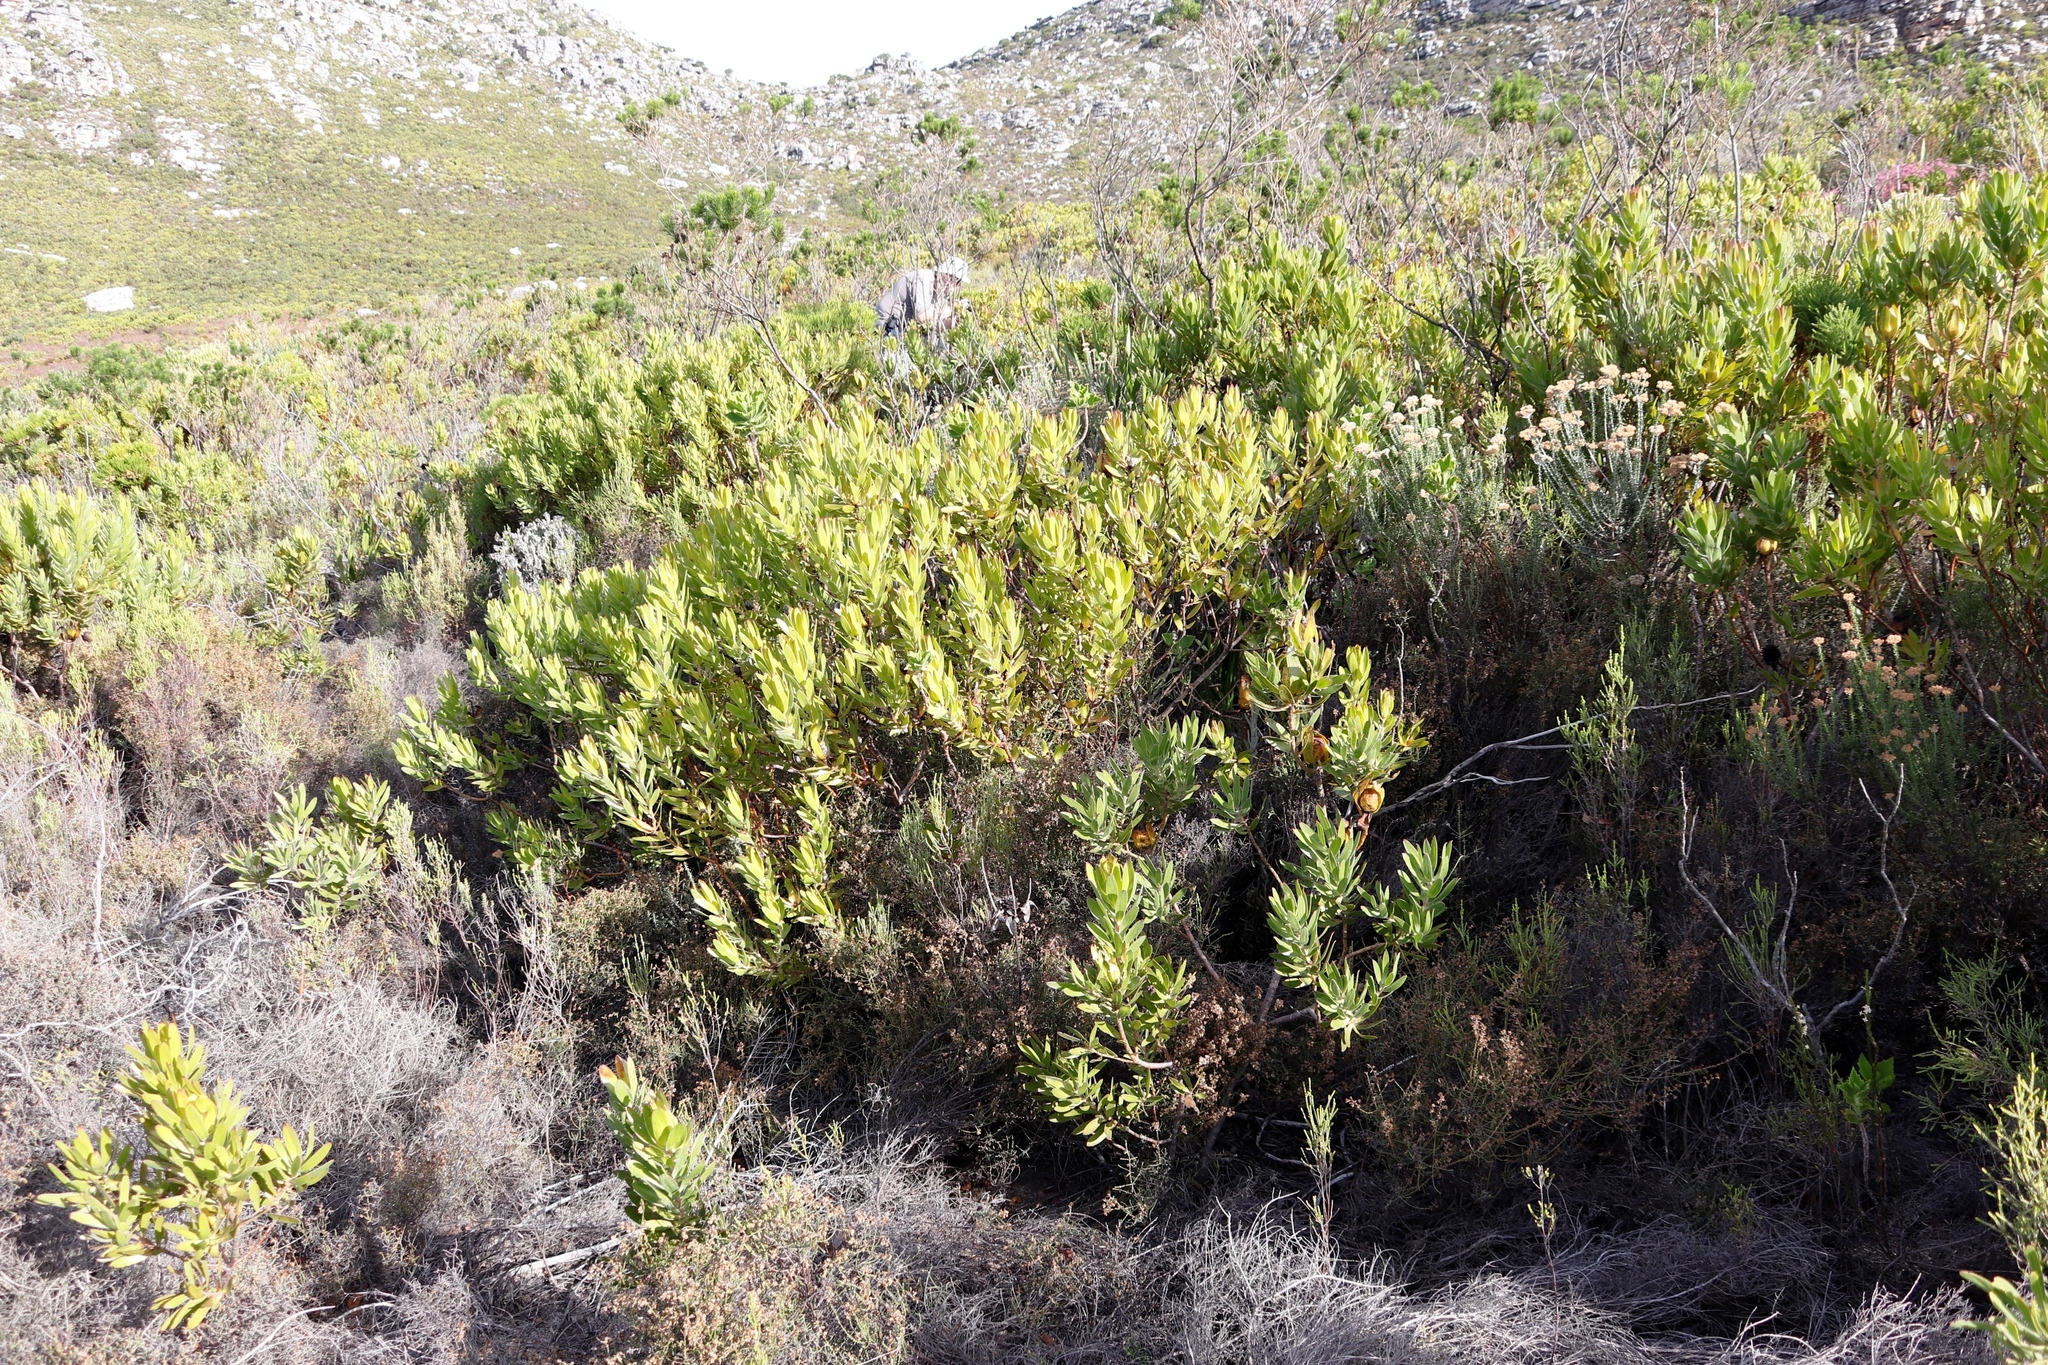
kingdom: Plantae
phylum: Tracheophyta
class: Magnoliopsida
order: Proteales
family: Proteaceae
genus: Leucadendron
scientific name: Leucadendron laureolum
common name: Golden sunshinebush
